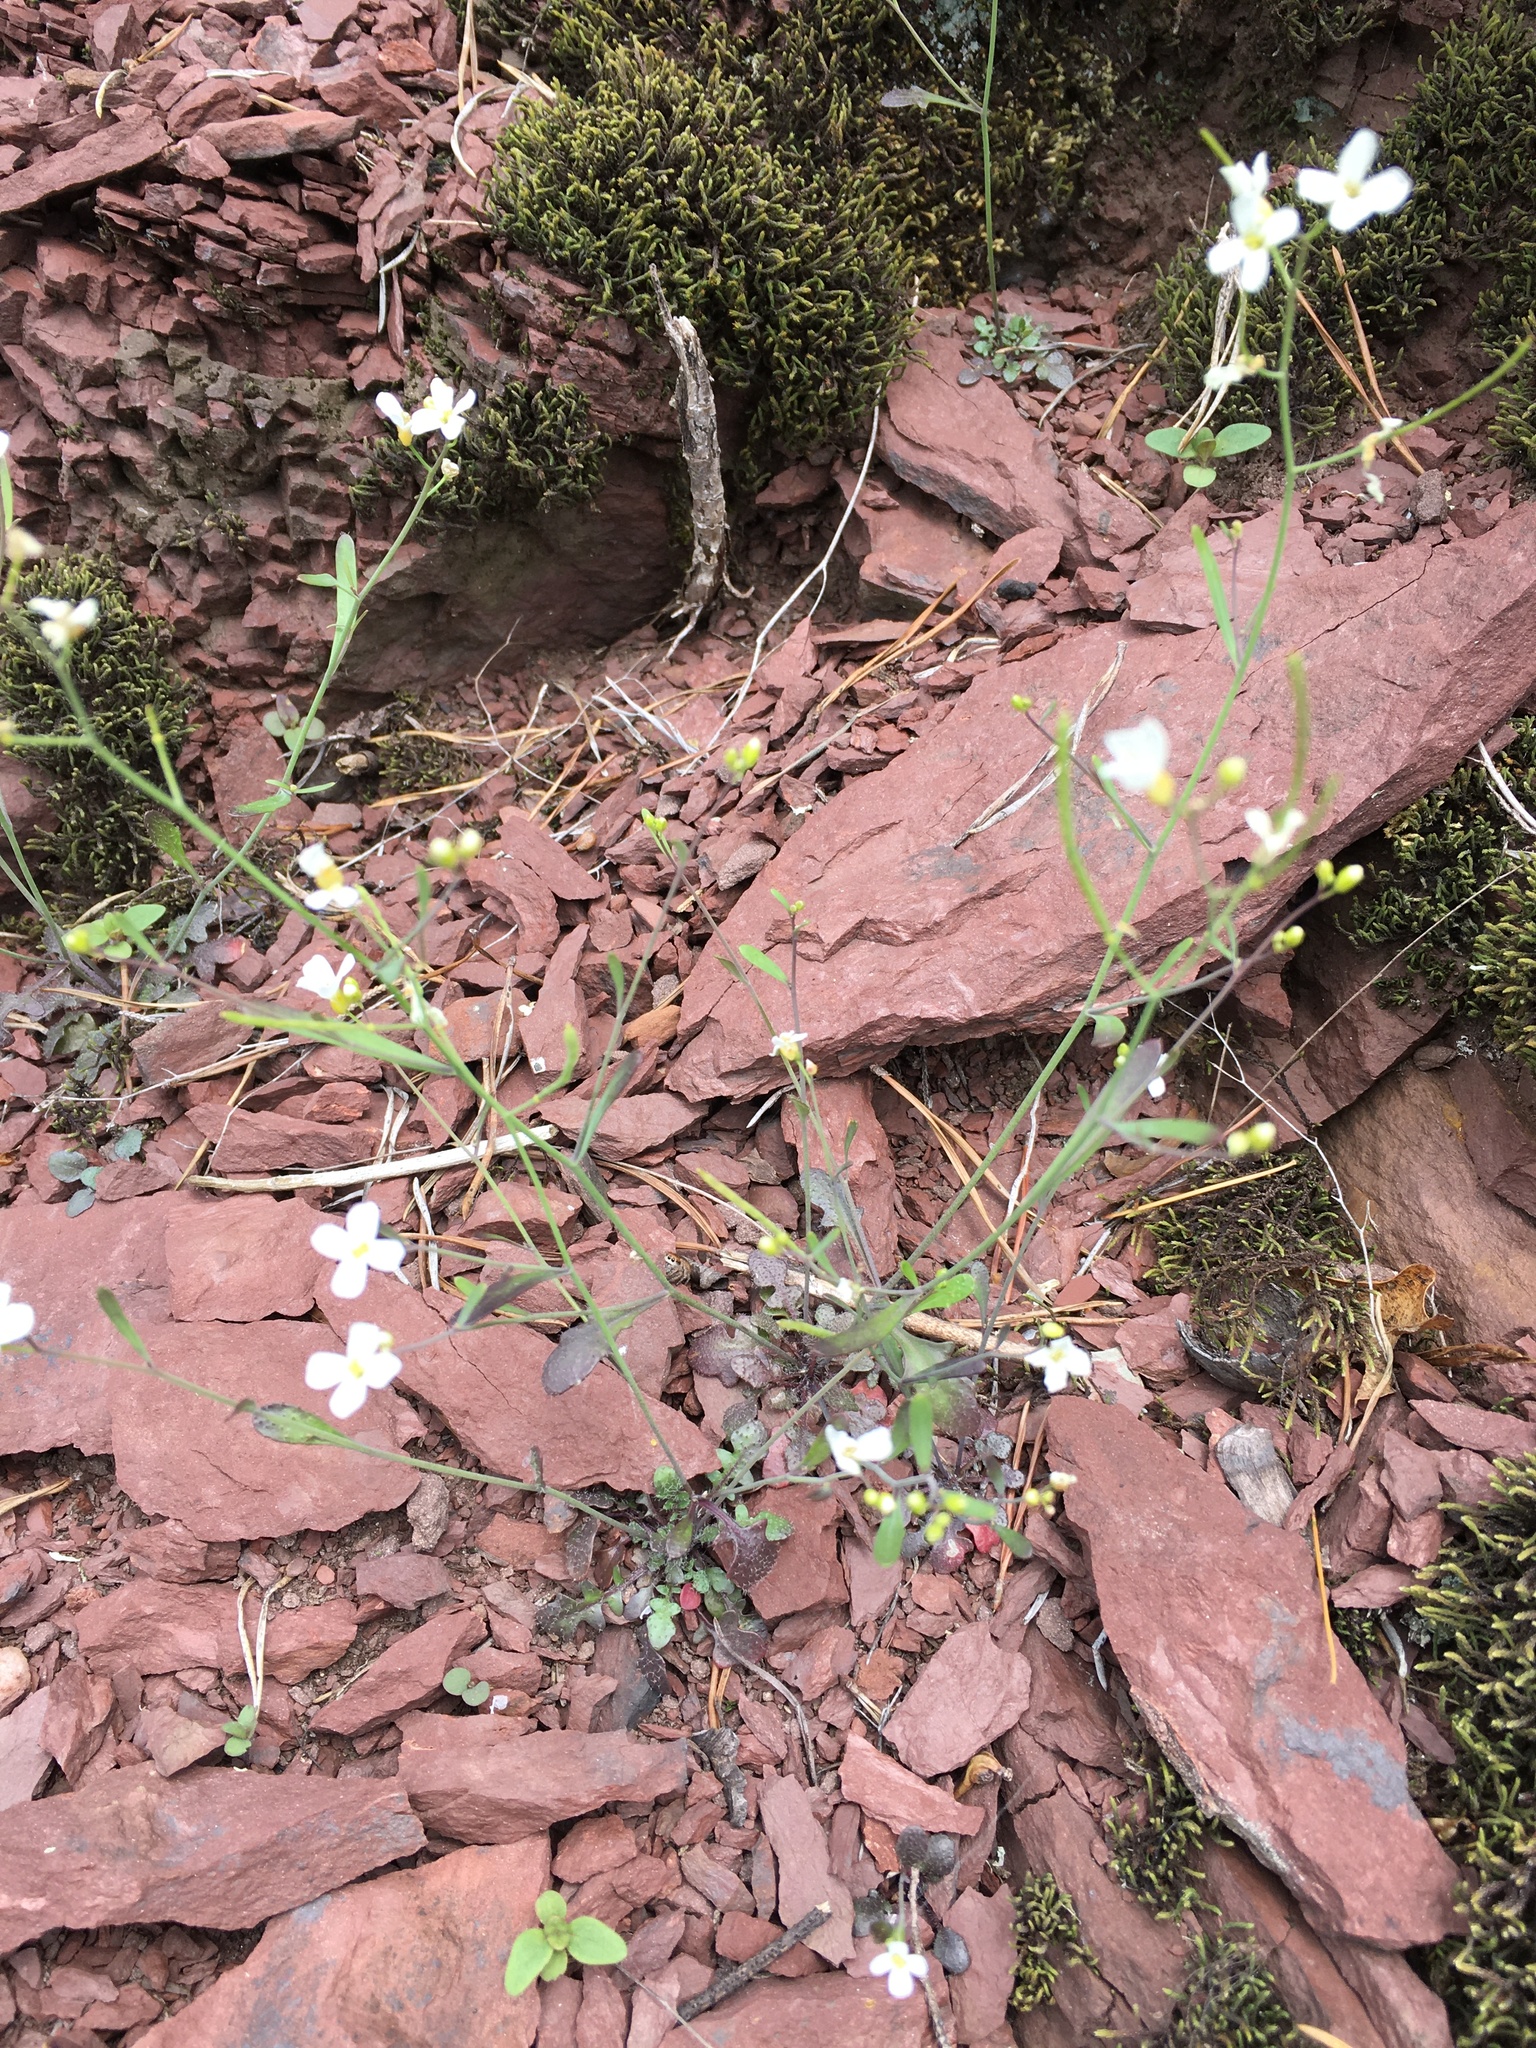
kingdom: Plantae
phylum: Tracheophyta
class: Magnoliopsida
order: Brassicales
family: Brassicaceae
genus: Arabidopsis
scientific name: Arabidopsis lyrata
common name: Lyrate rockcress
